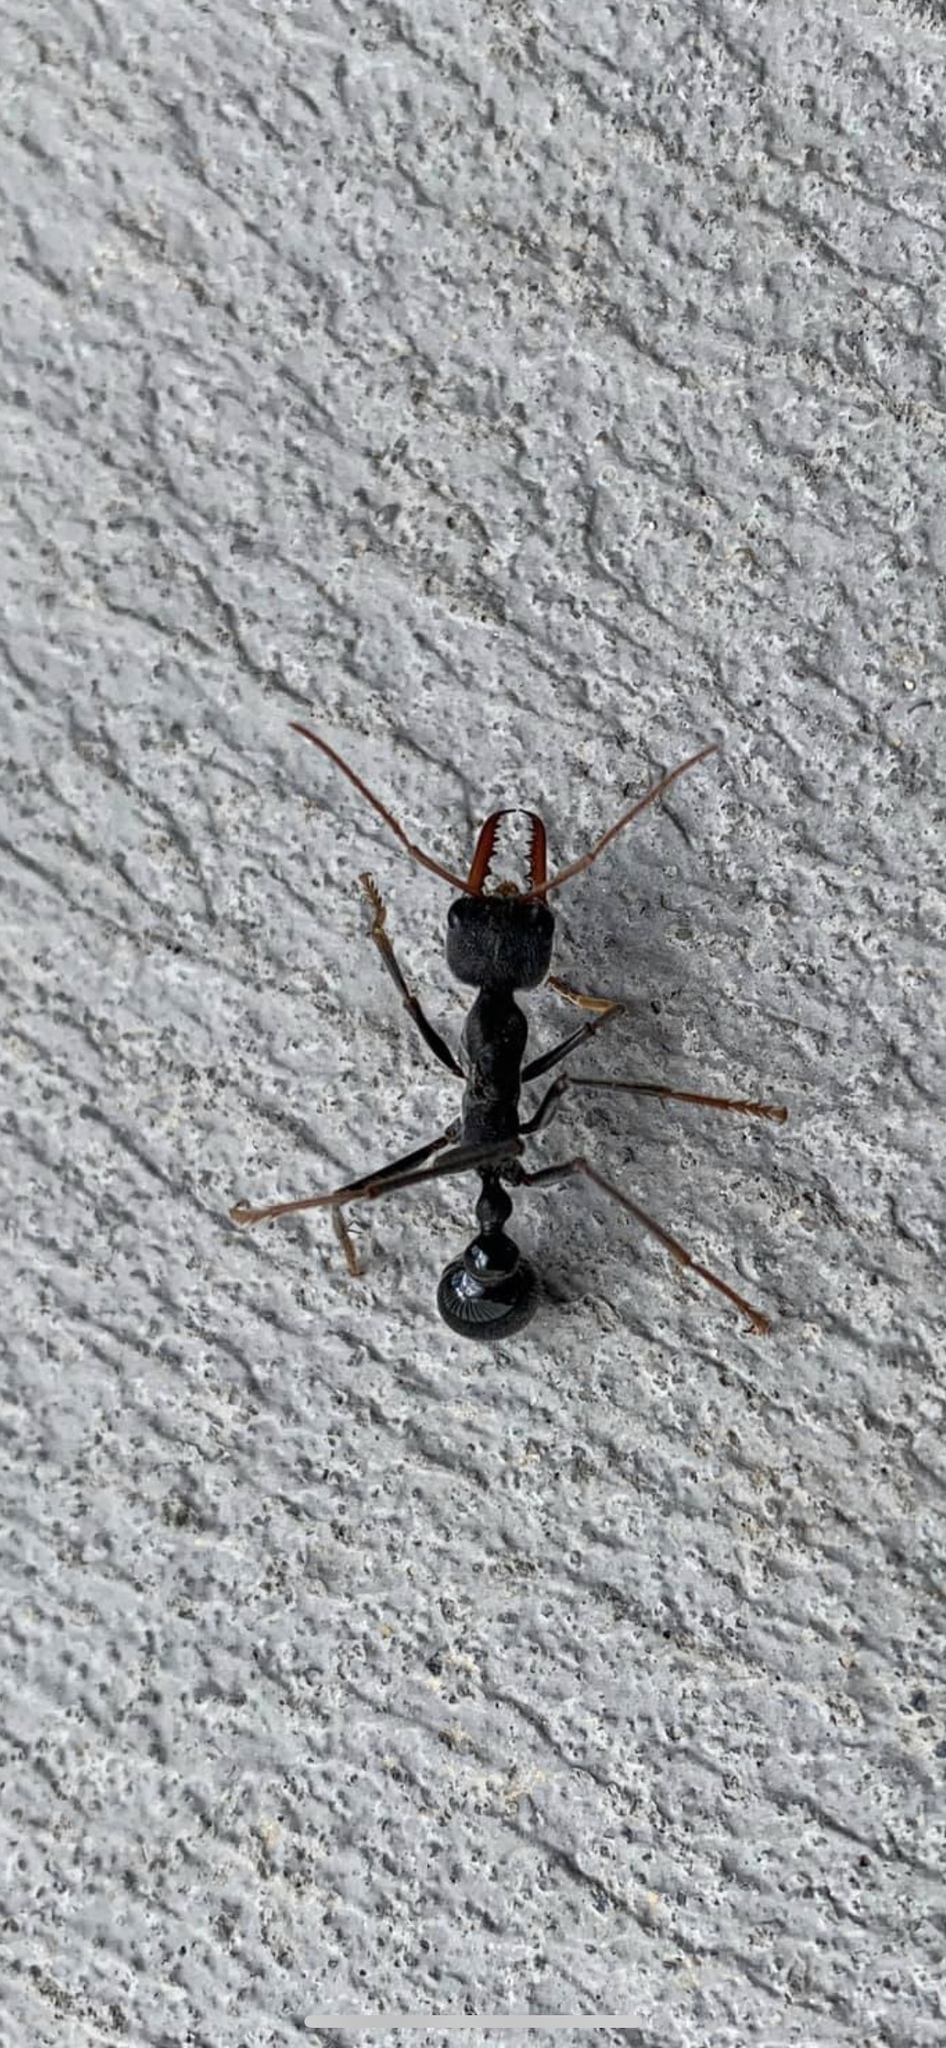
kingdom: Animalia
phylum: Arthropoda
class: Insecta
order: Hymenoptera
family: Formicidae
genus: Myrmecia
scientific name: Myrmecia simillima
